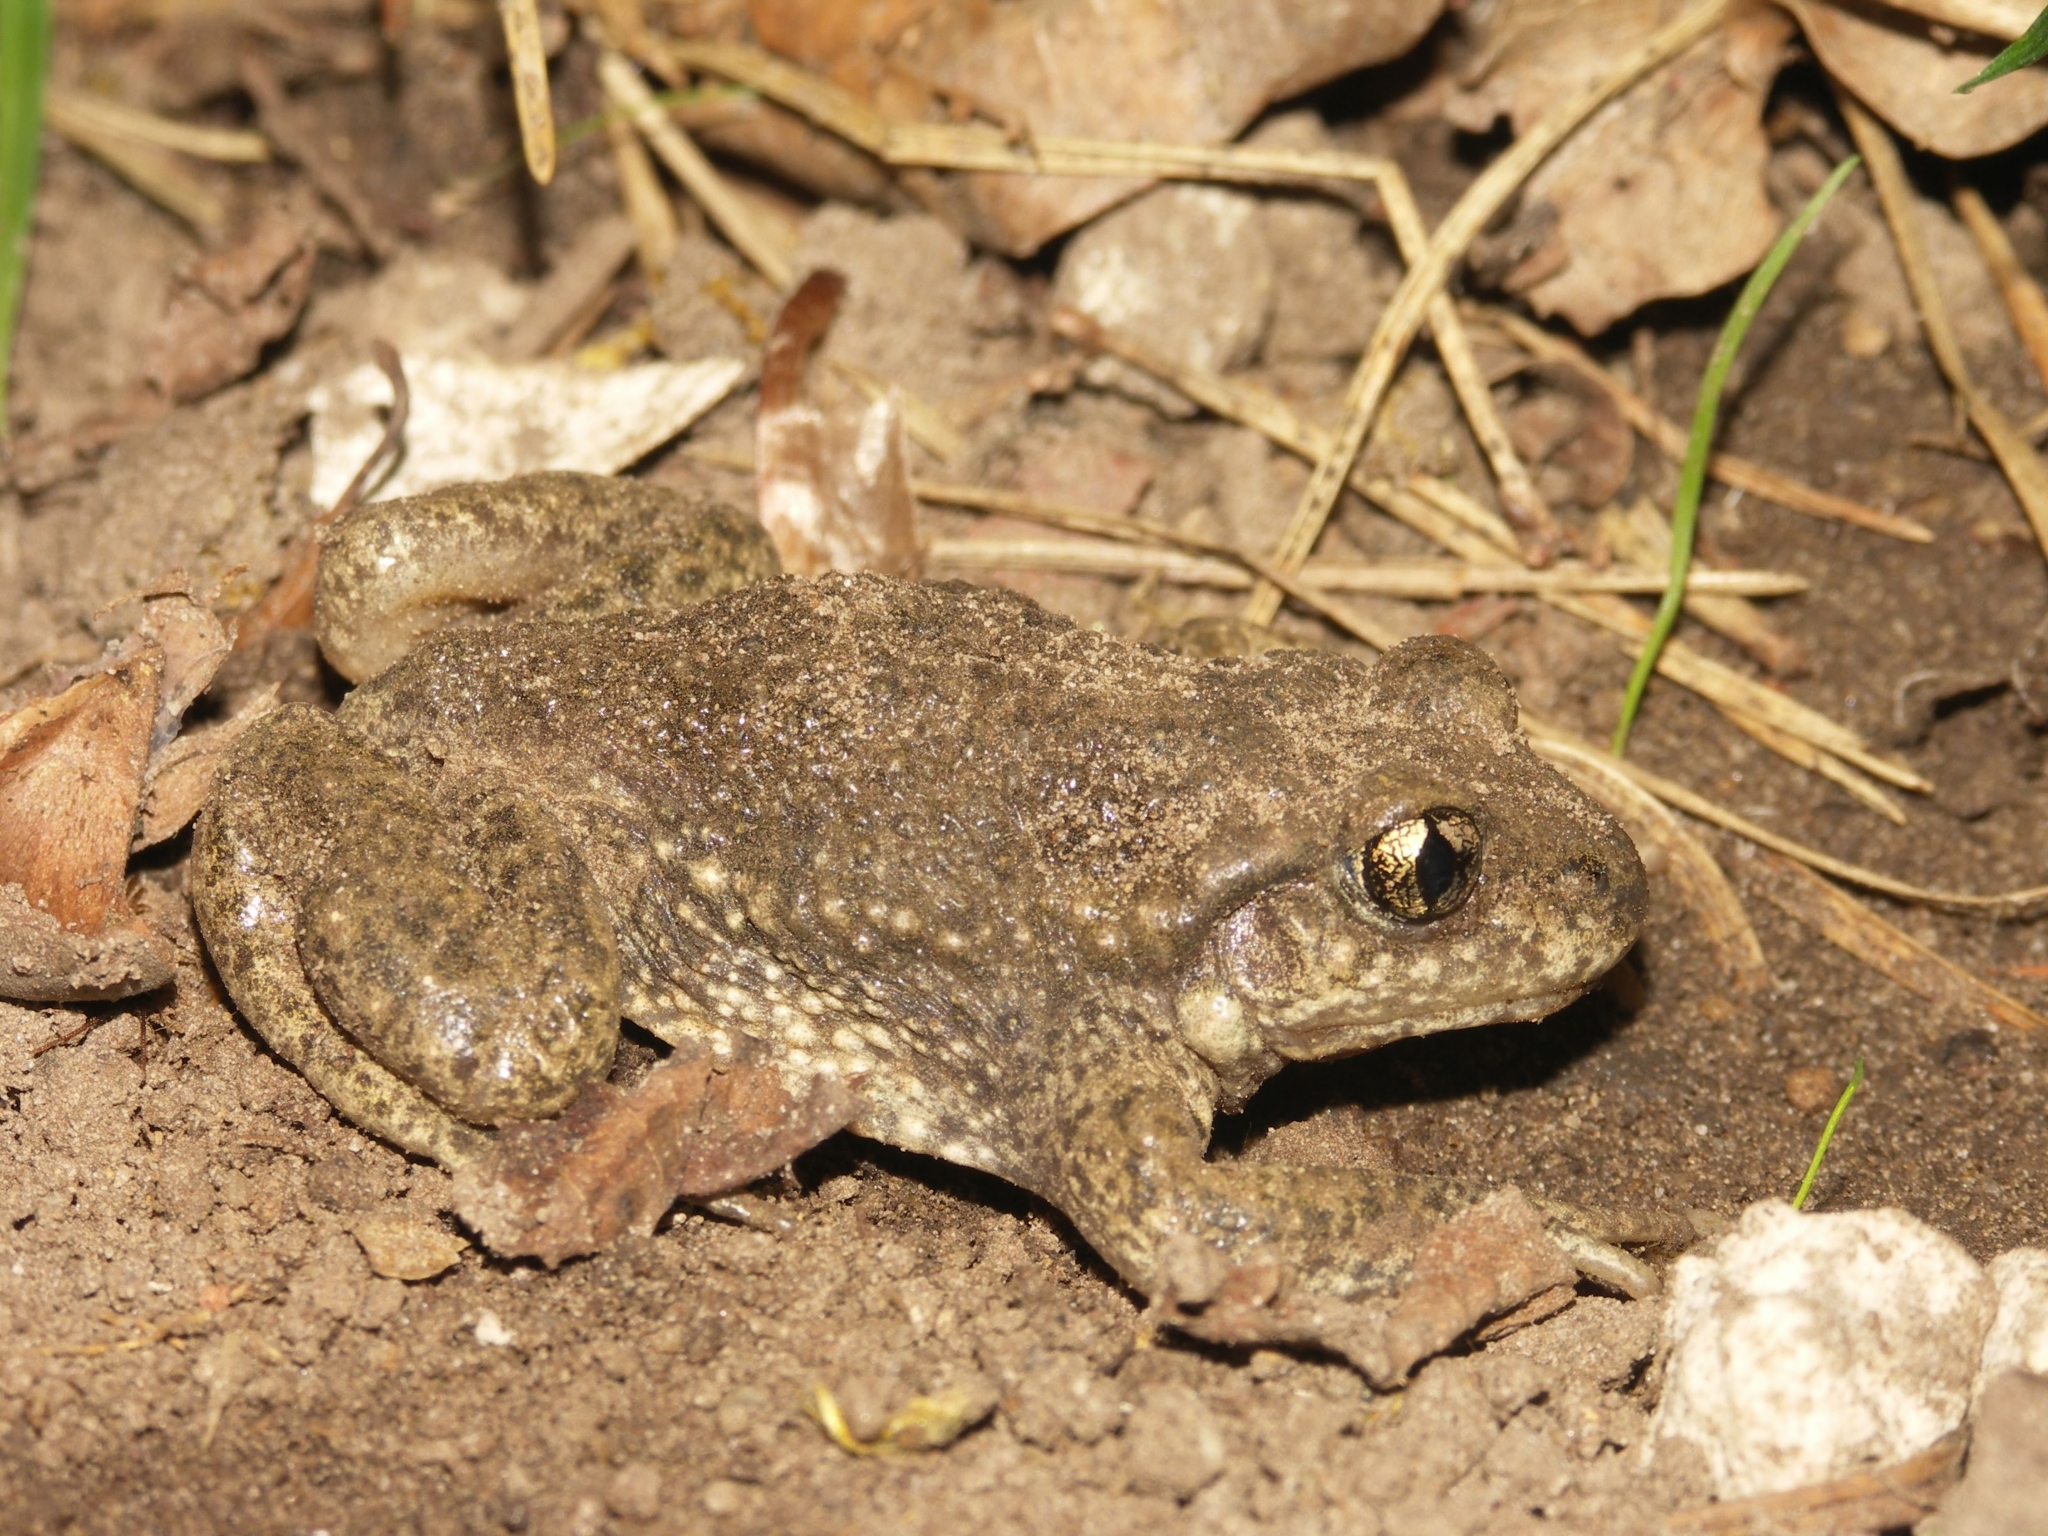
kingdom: Animalia
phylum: Chordata
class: Amphibia
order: Anura
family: Alytidae
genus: Alytes
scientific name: Alytes obstetricans
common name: Midwife toad
